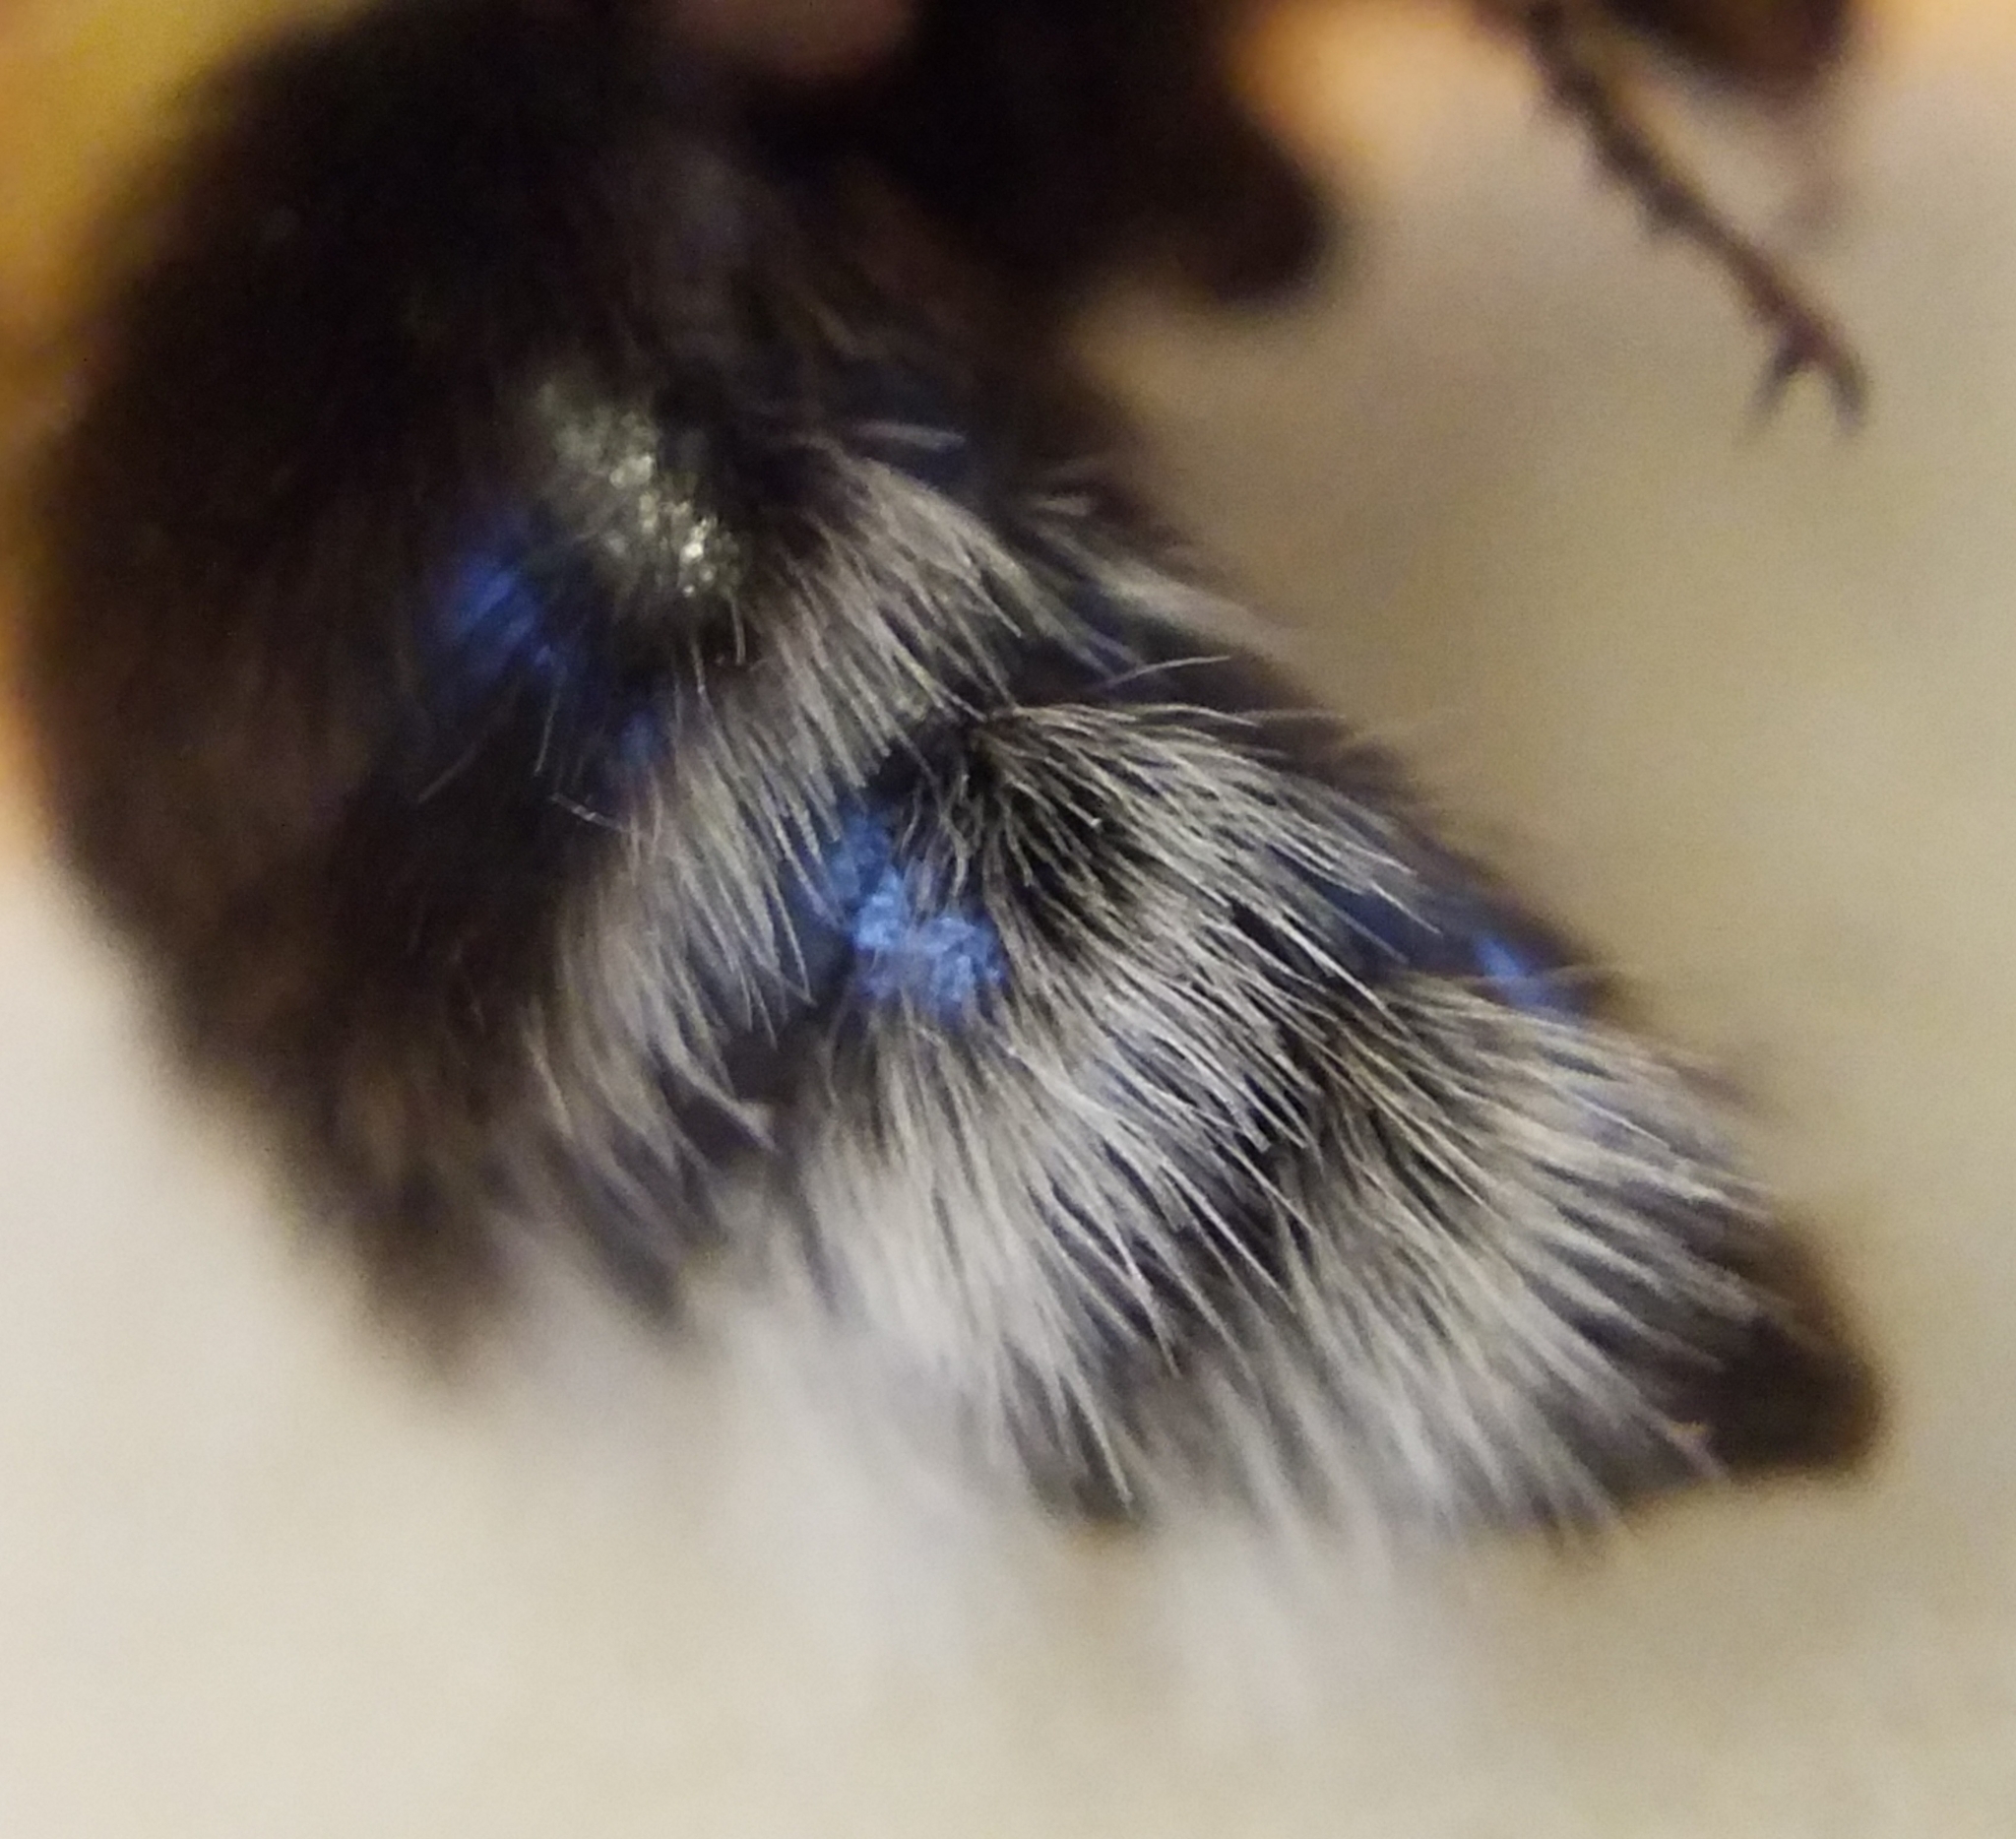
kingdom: Animalia
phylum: Arthropoda
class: Insecta
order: Hymenoptera
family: Apidae
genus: Bombus
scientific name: Bombus hortorum
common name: Garden bumblebee
